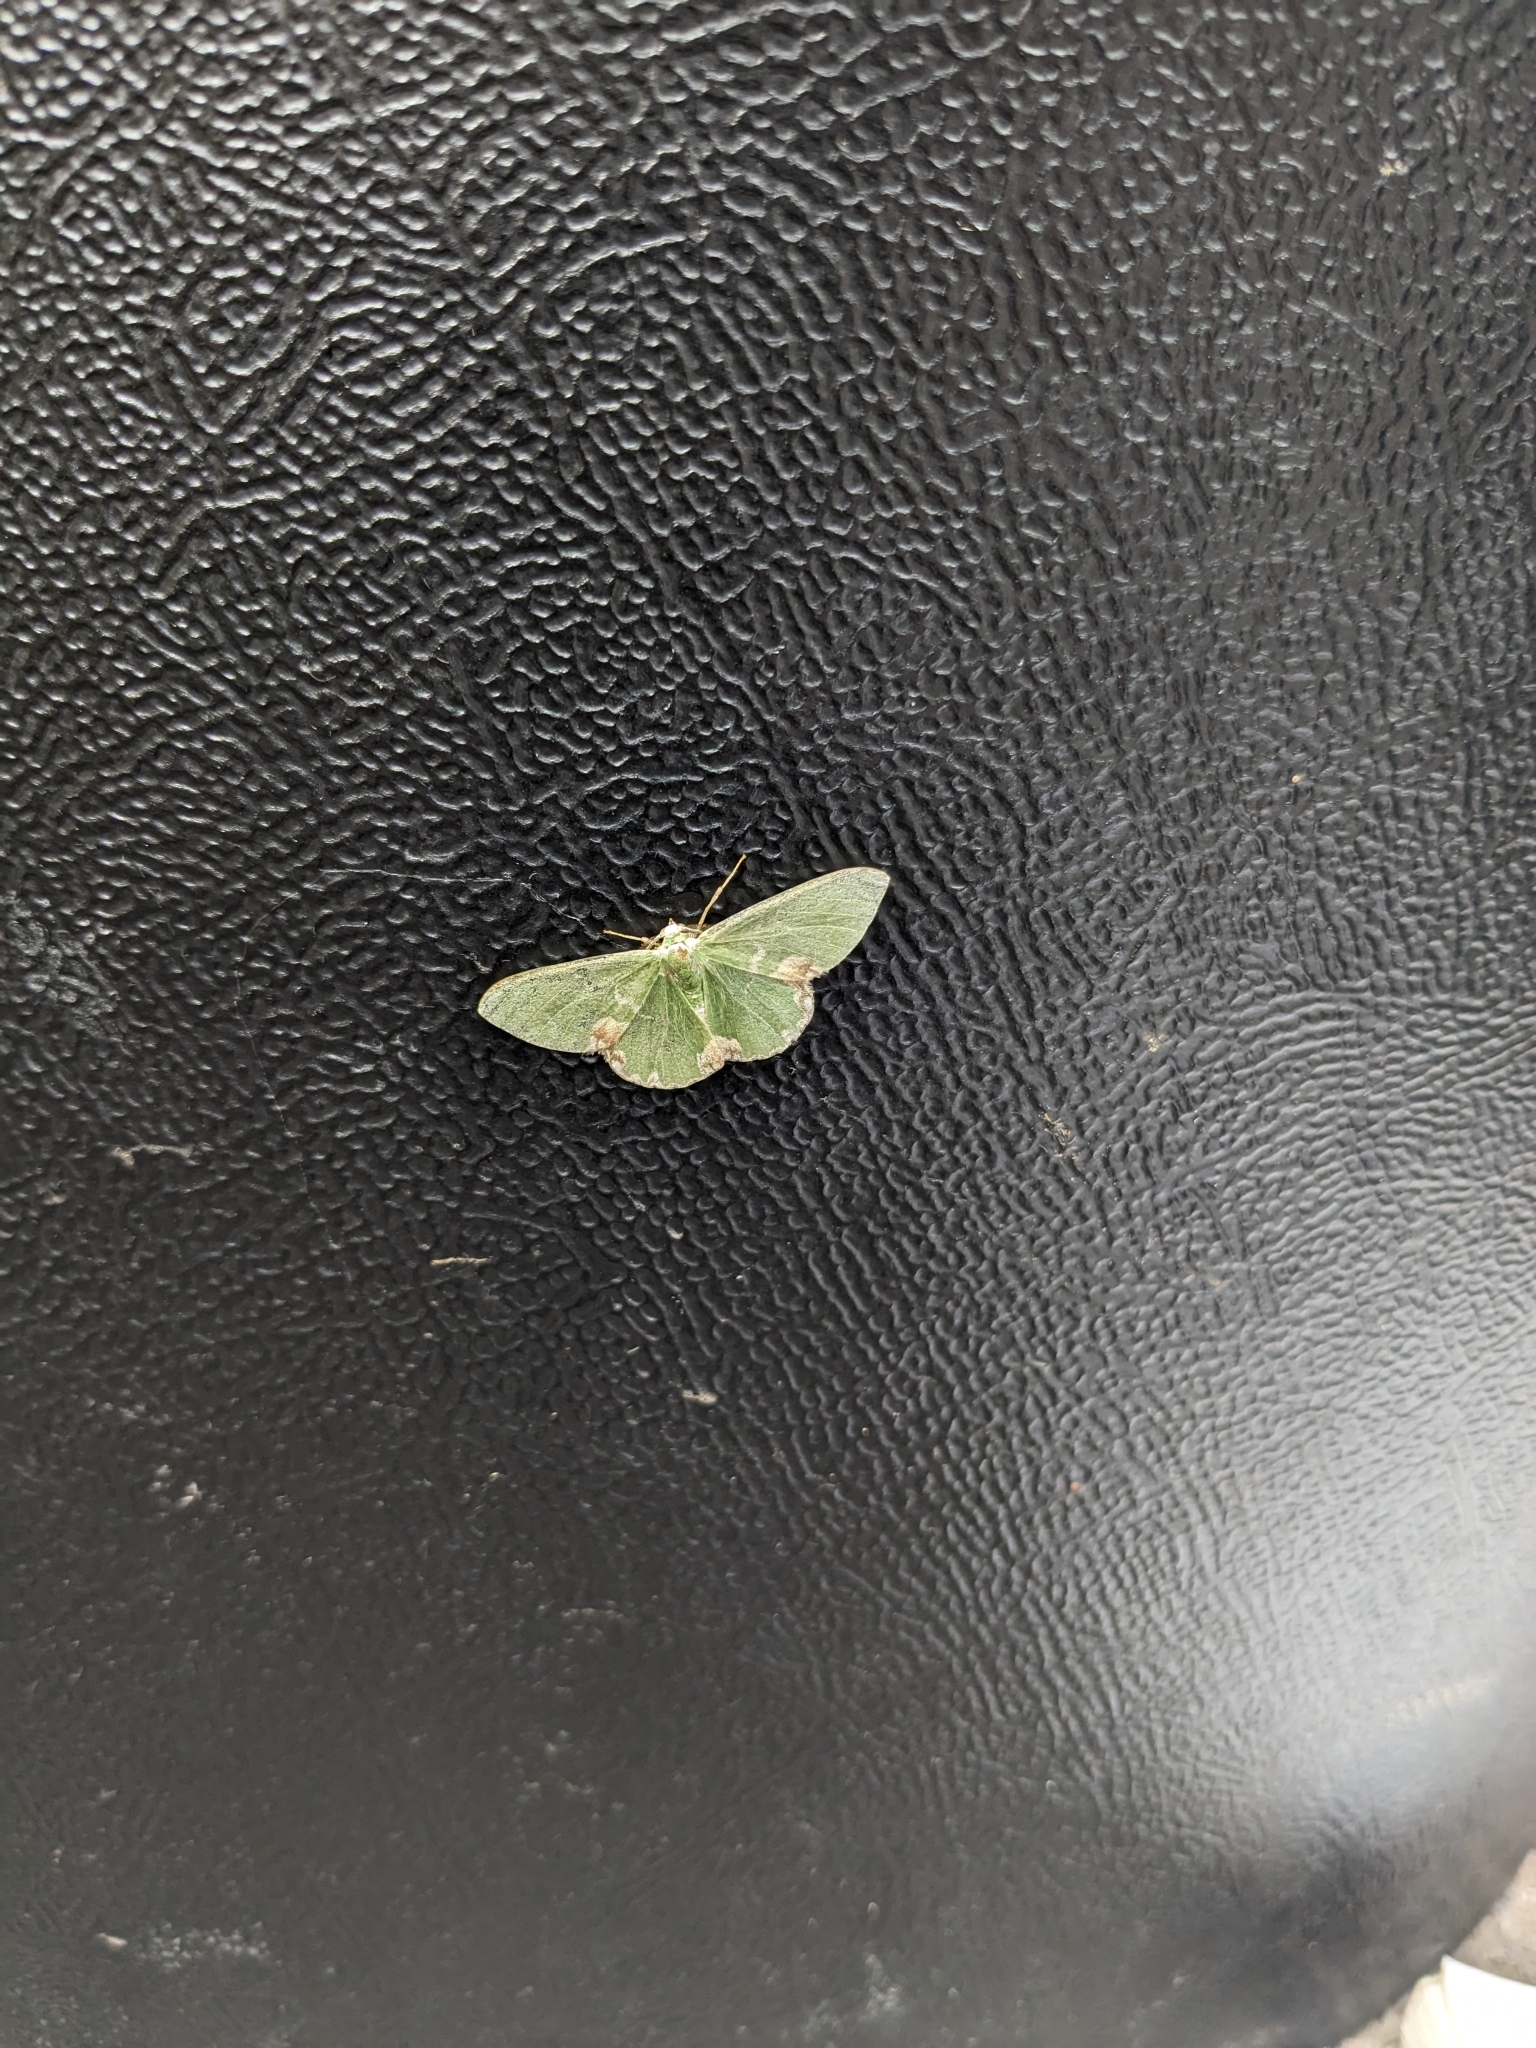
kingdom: Animalia
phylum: Arthropoda
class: Insecta
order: Lepidoptera
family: Geometridae
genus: Comibaena
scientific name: Comibaena bajularia
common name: Blotched emerald
